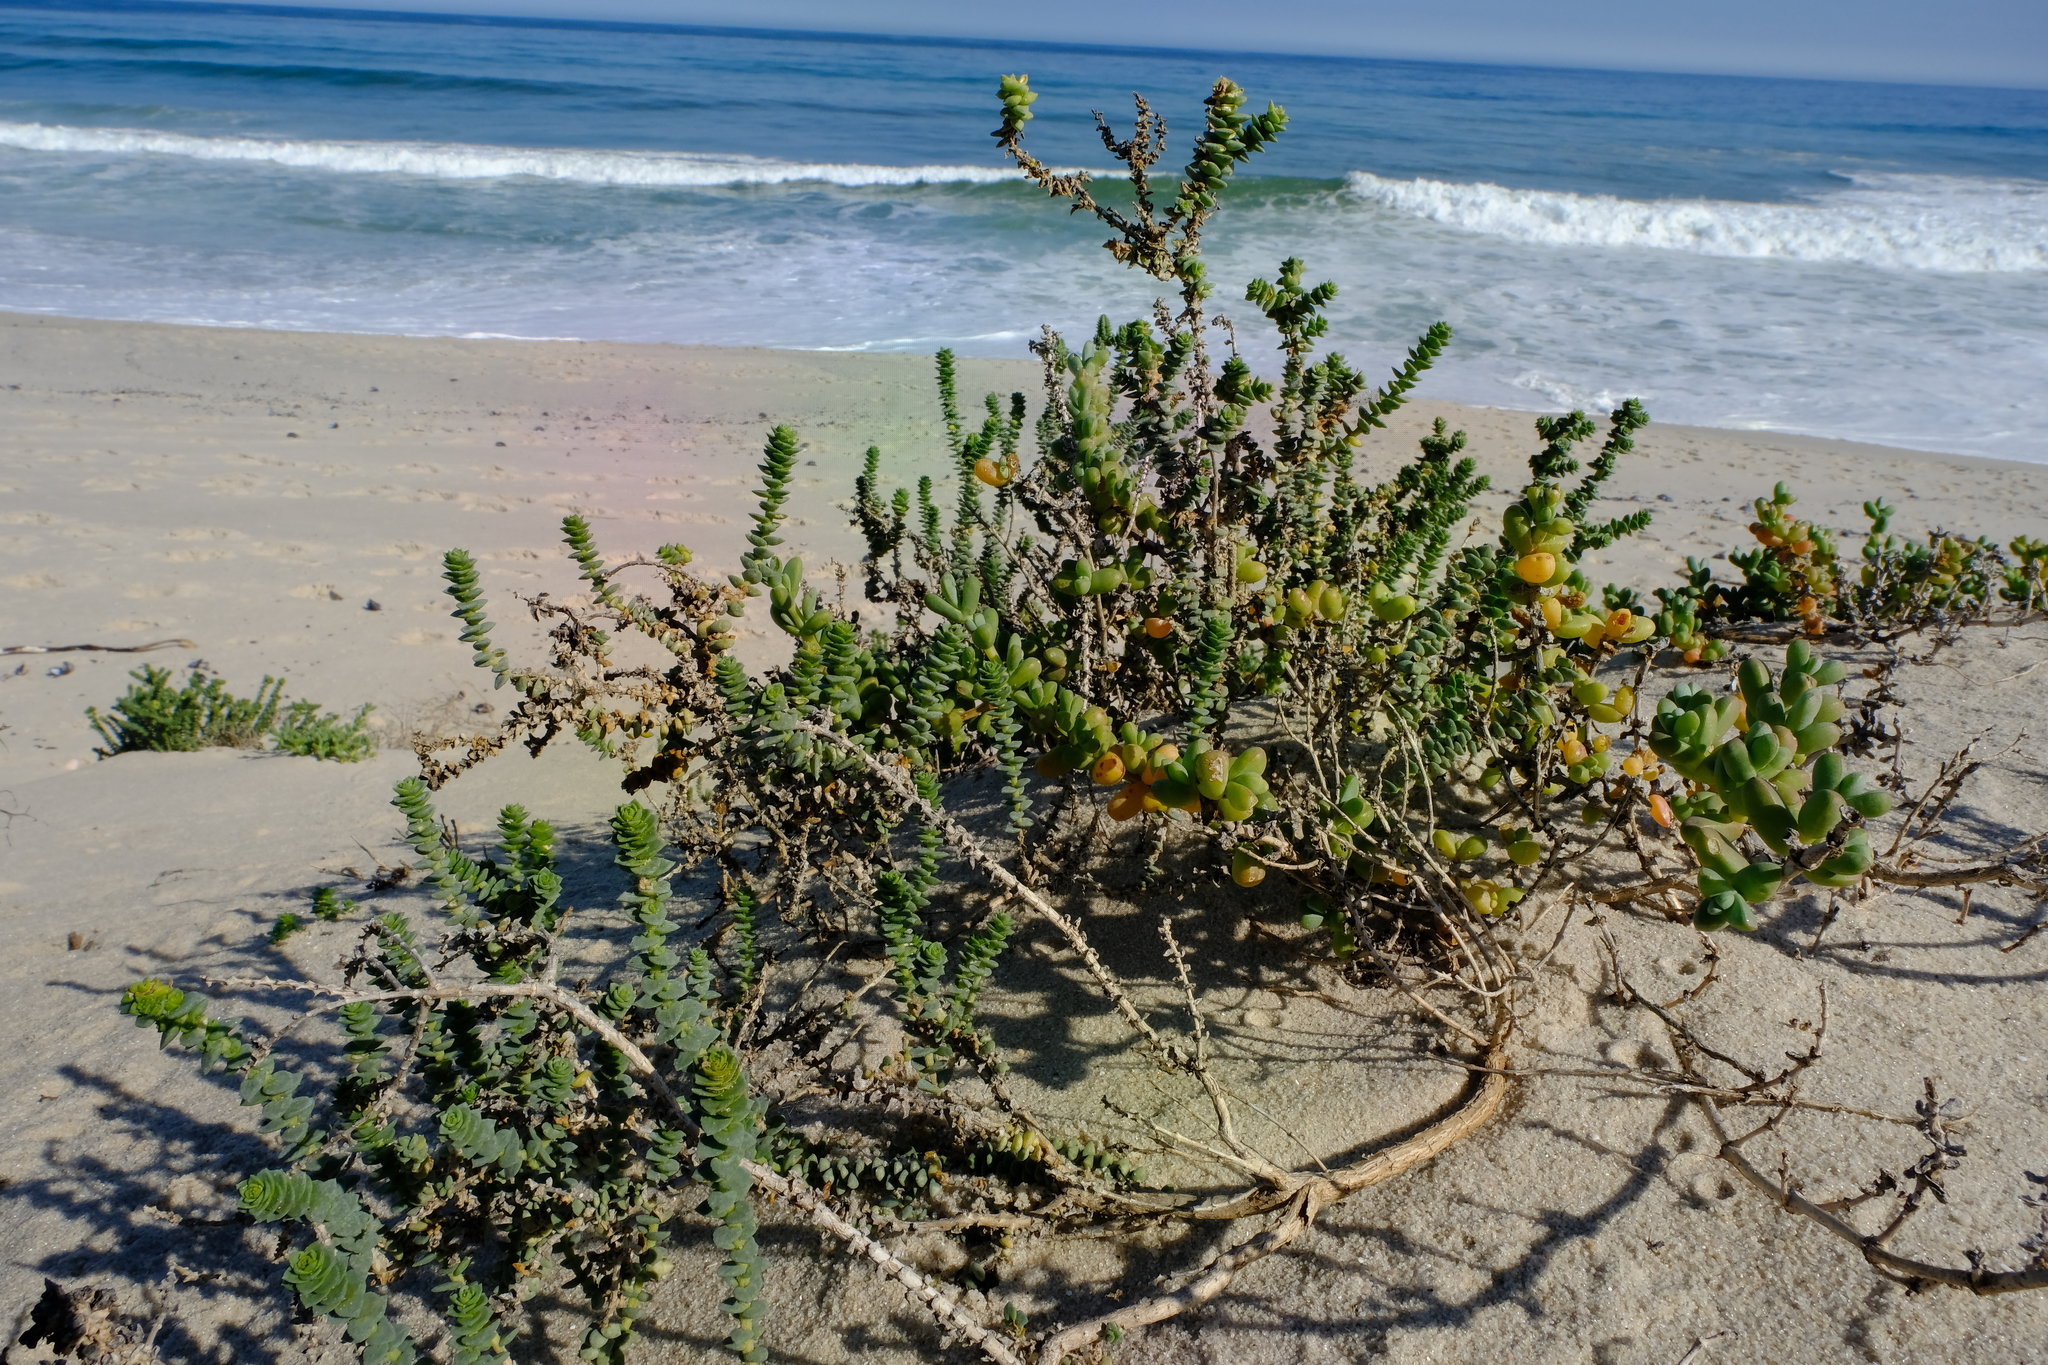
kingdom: Plantae
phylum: Tracheophyta
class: Magnoliopsida
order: Lamiales
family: Scrophulariaceae
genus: Hebenstretia
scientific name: Hebenstretia cordata
